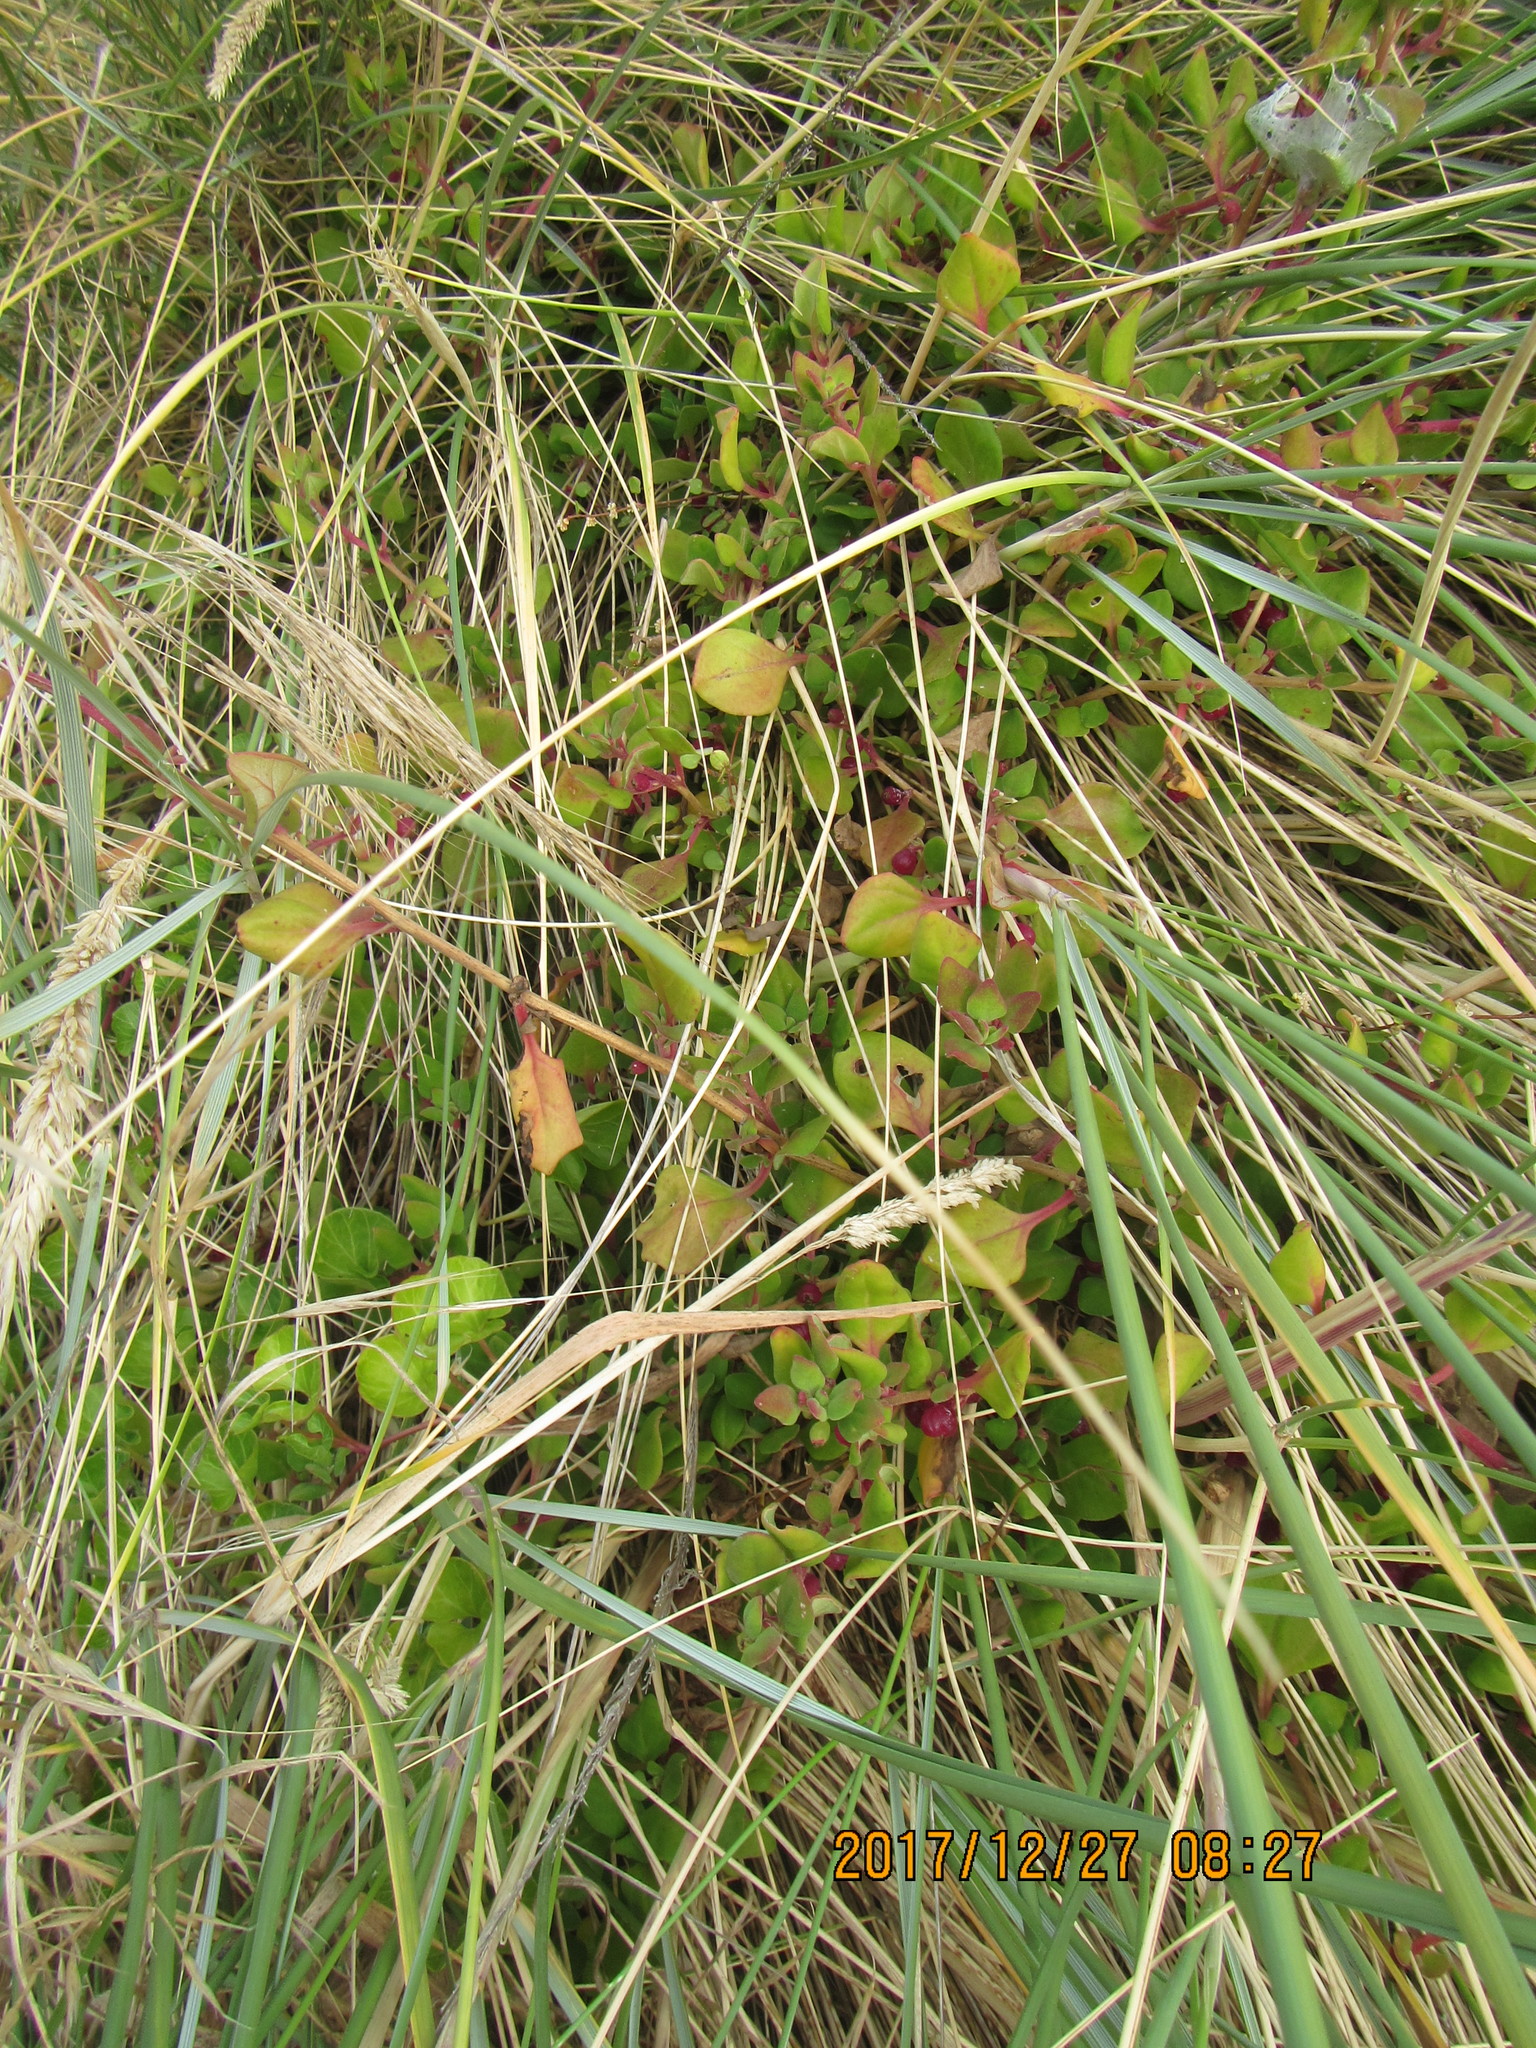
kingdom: Plantae
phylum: Tracheophyta
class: Magnoliopsida
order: Caryophyllales
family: Aizoaceae
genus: Tetragonia
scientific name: Tetragonia implexicoma
